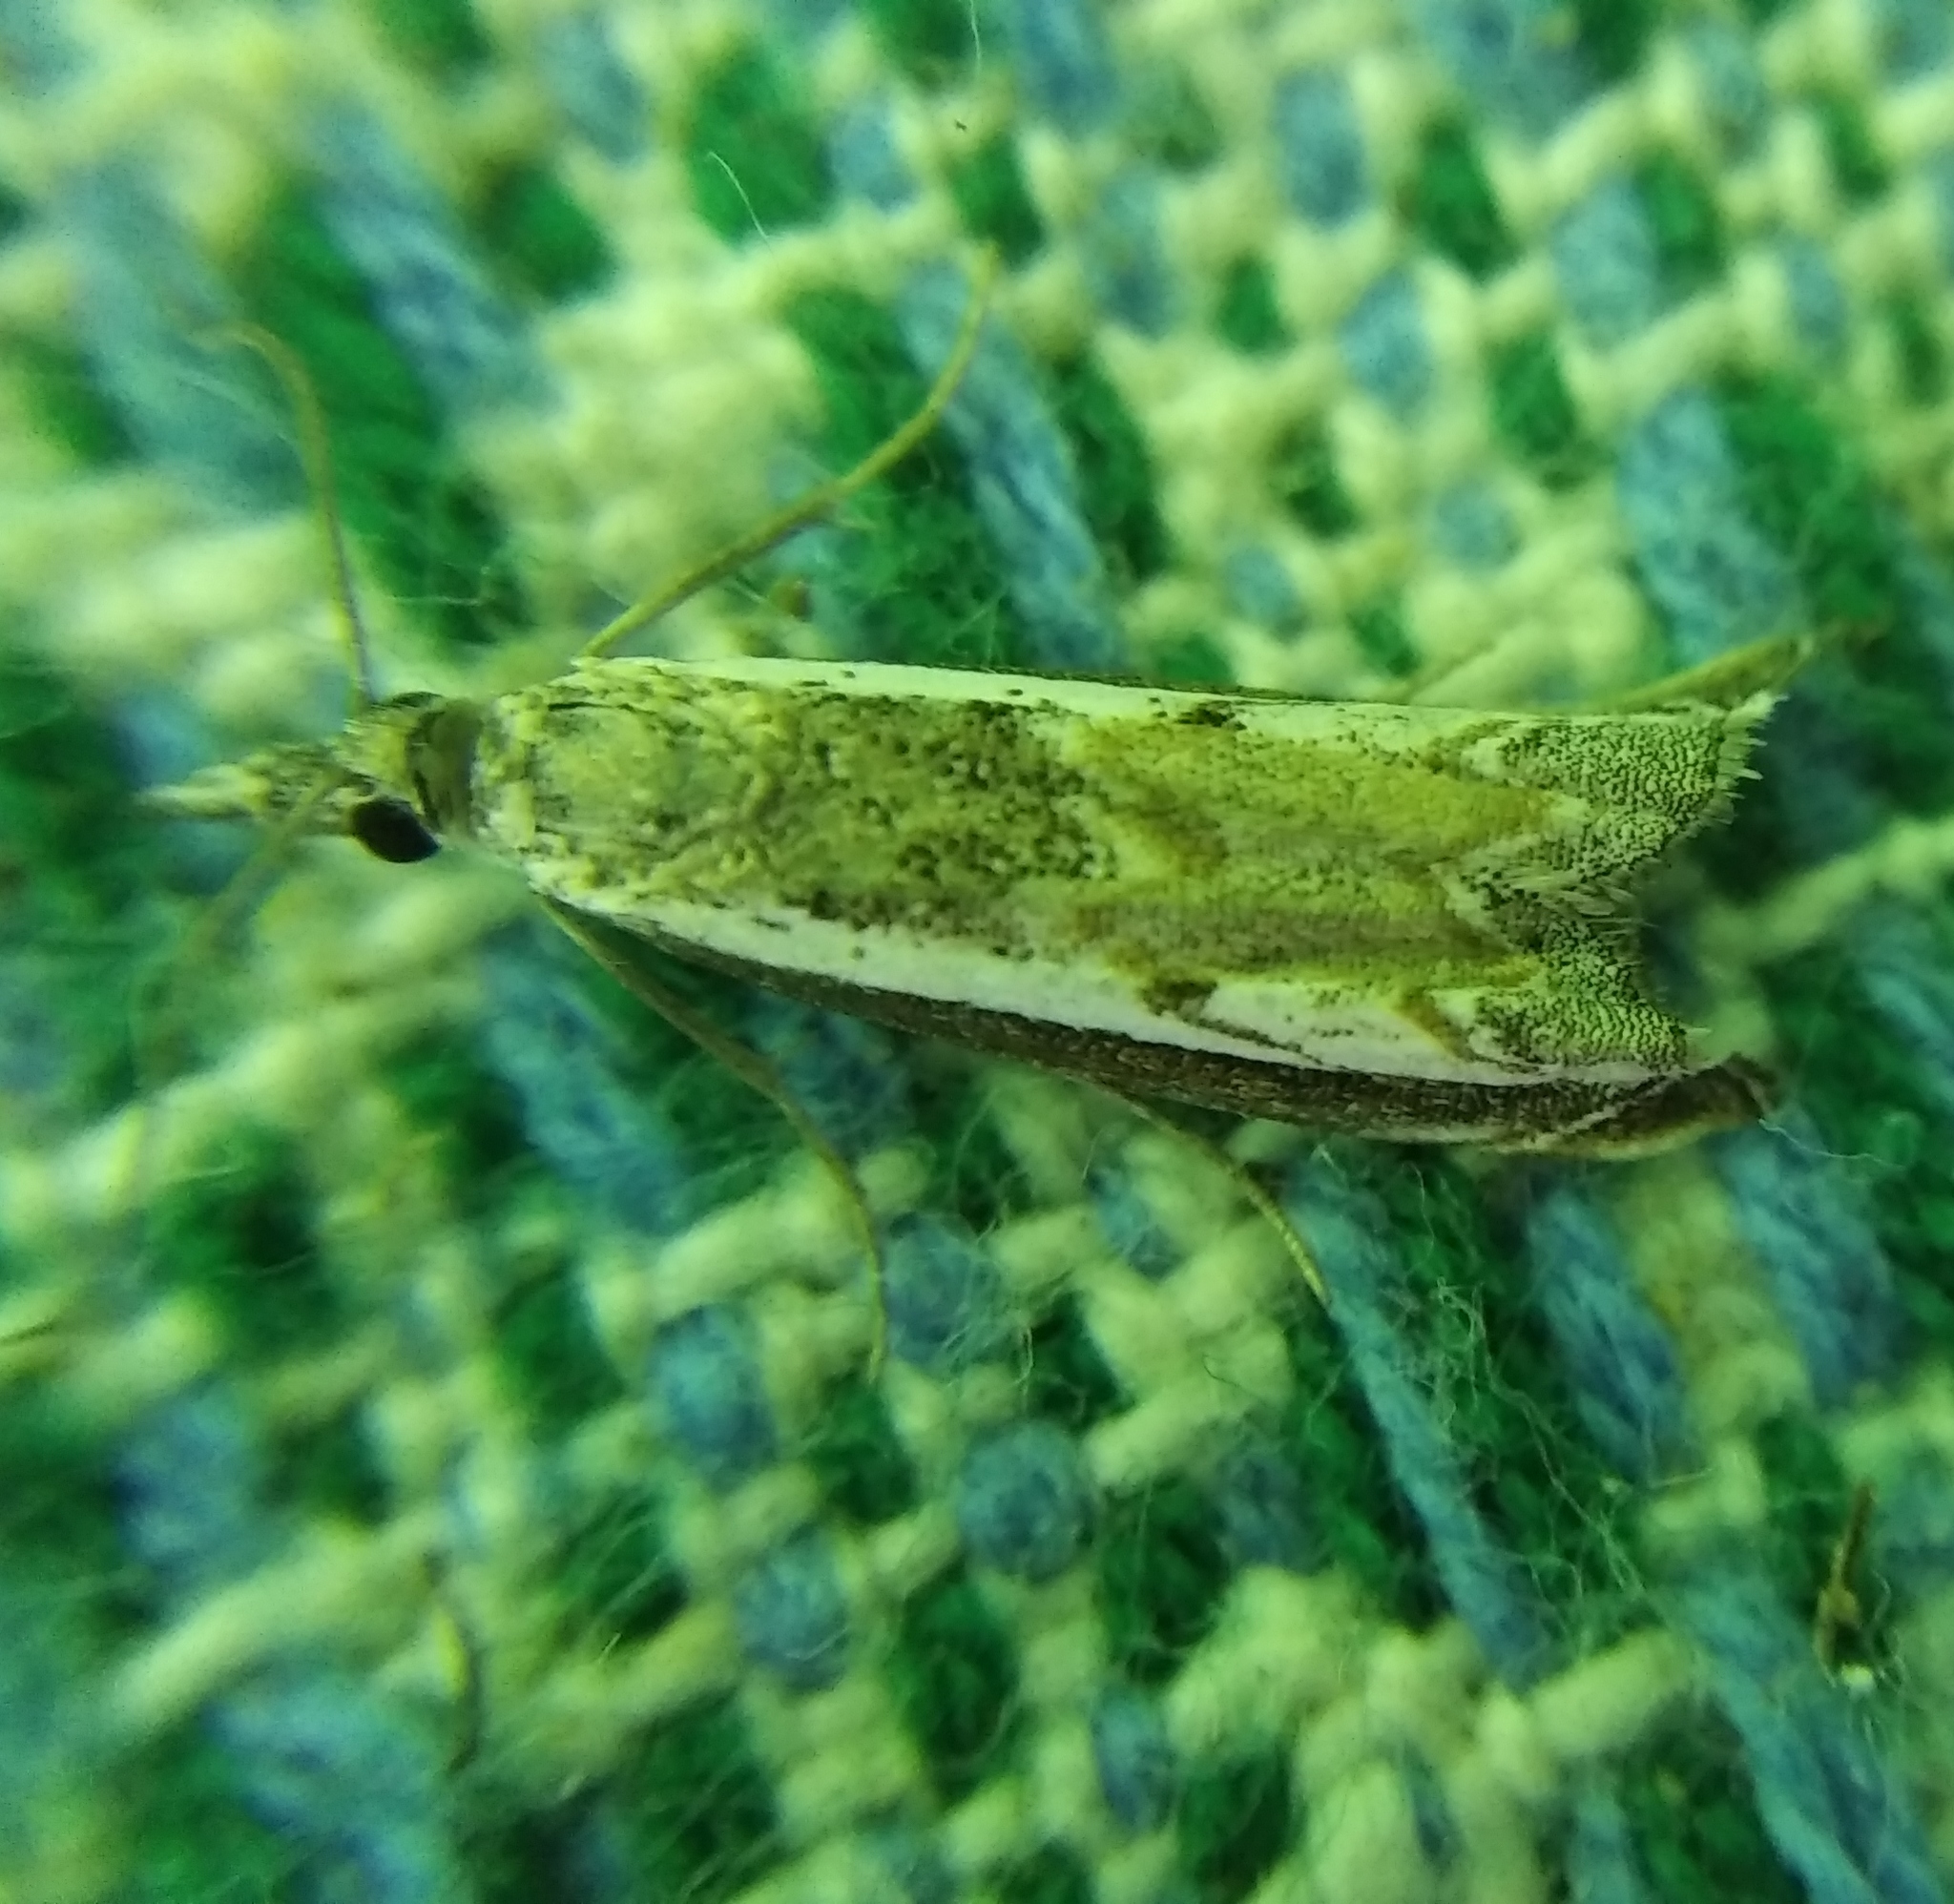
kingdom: Animalia
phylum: Arthropoda
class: Insecta
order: Lepidoptera
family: Crambidae
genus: Platytes
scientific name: Platytes alpinella
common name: Hook-tipped grass-veneer
